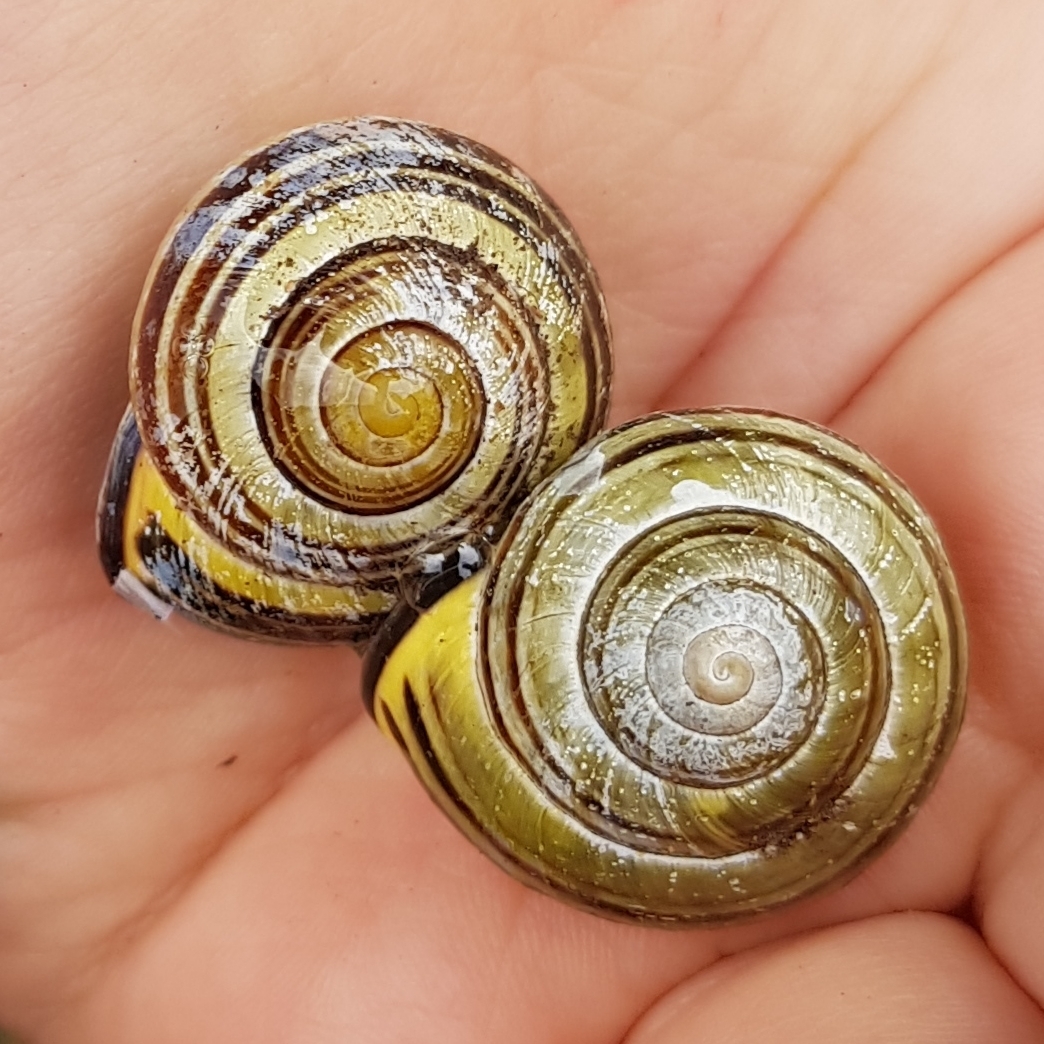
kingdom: Animalia
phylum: Mollusca
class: Gastropoda
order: Stylommatophora
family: Helicidae
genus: Cepaea
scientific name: Cepaea nemoralis
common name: Grovesnail
